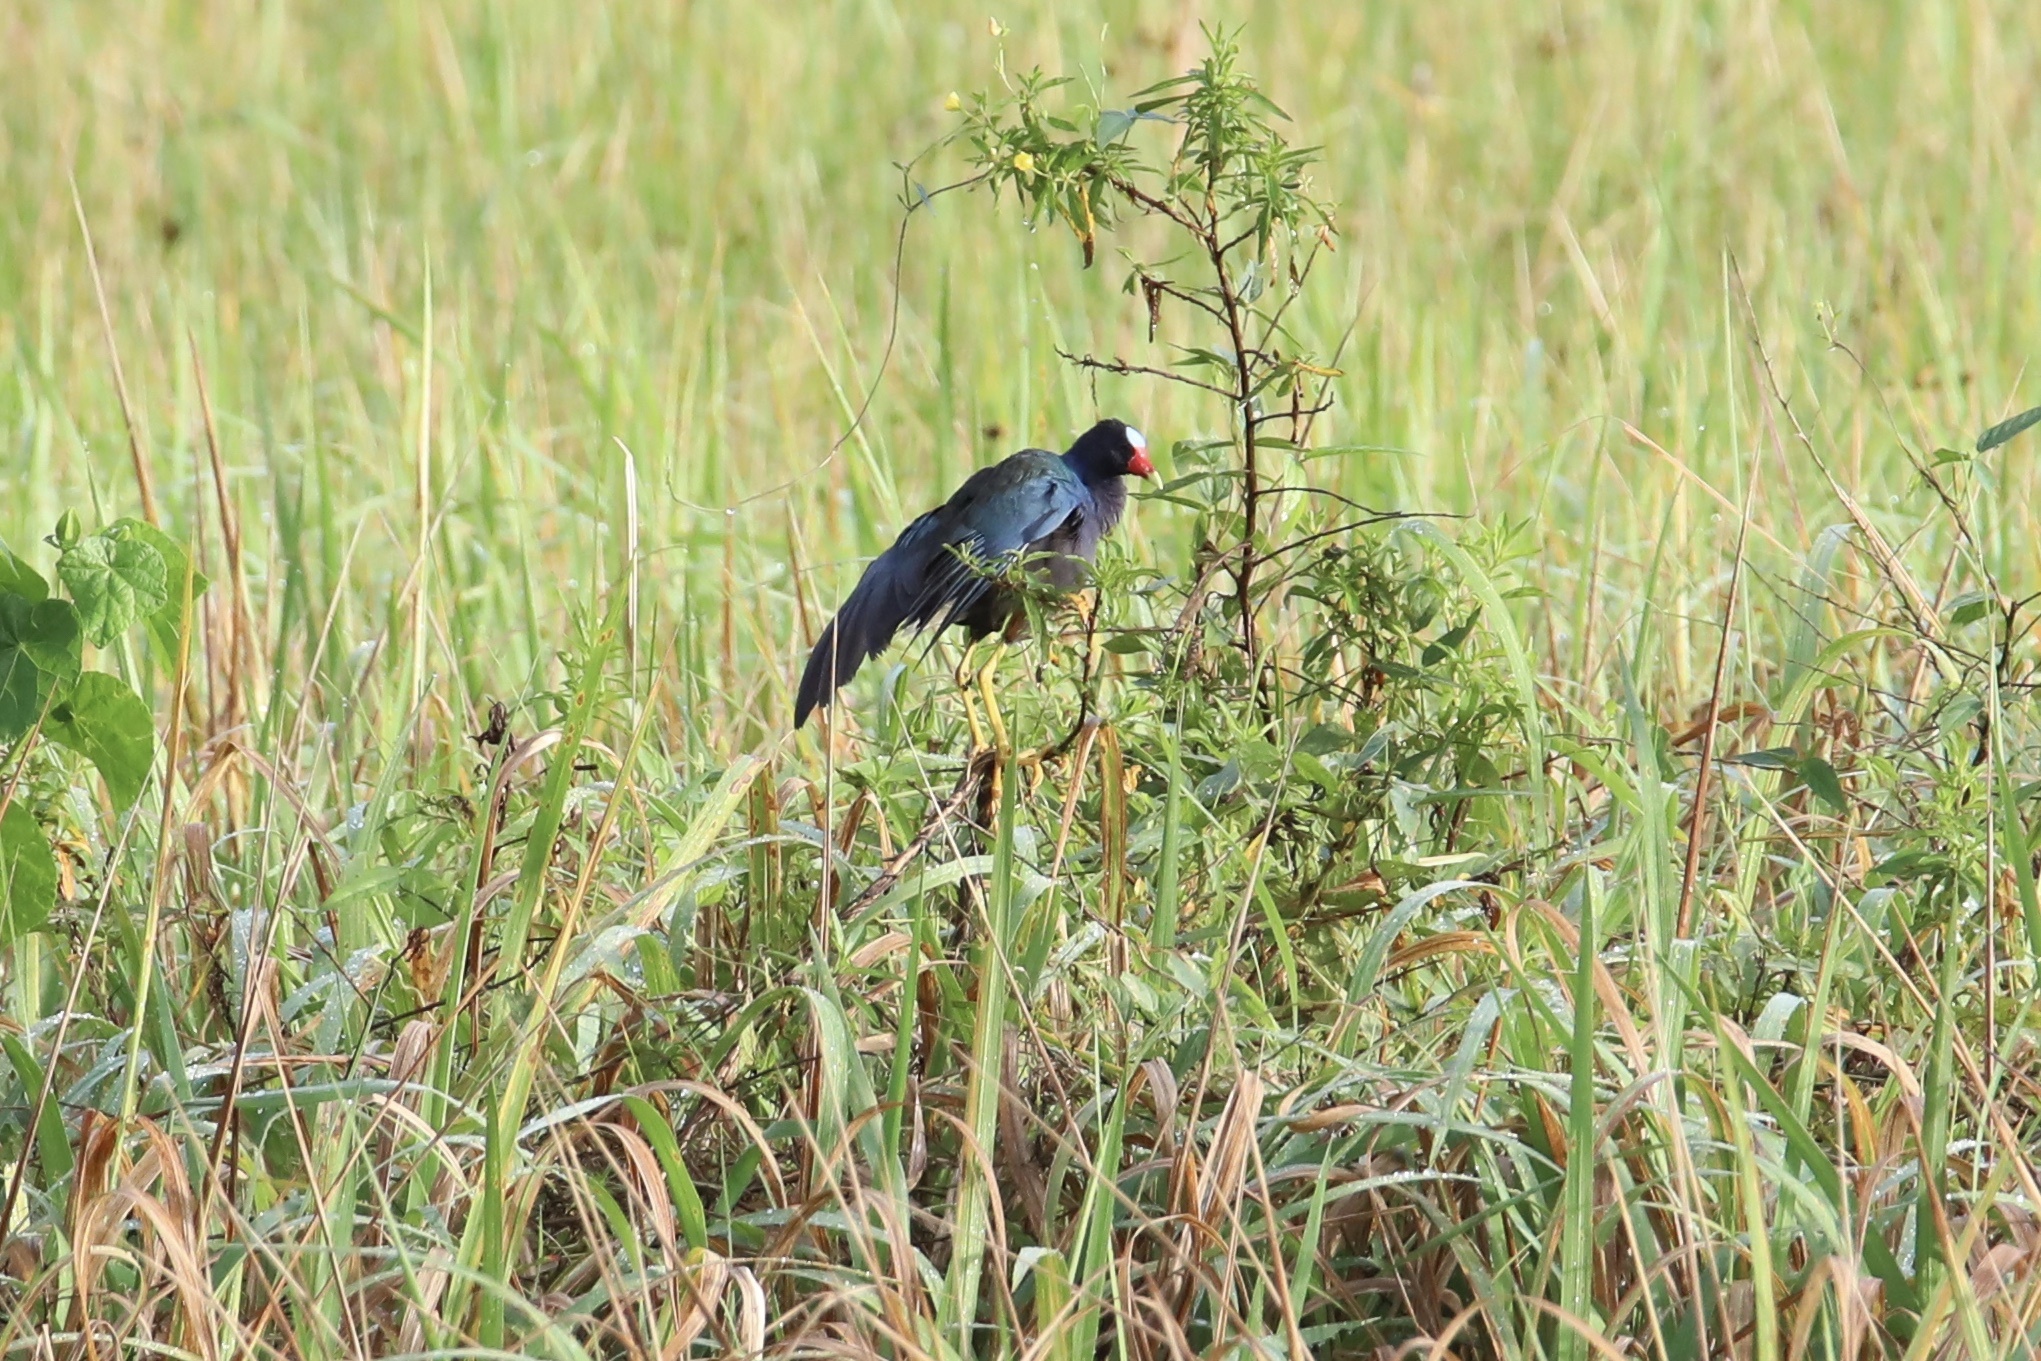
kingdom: Animalia
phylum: Chordata
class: Aves
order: Gruiformes
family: Rallidae
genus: Porphyrio
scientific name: Porphyrio martinica
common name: Purple gallinule
